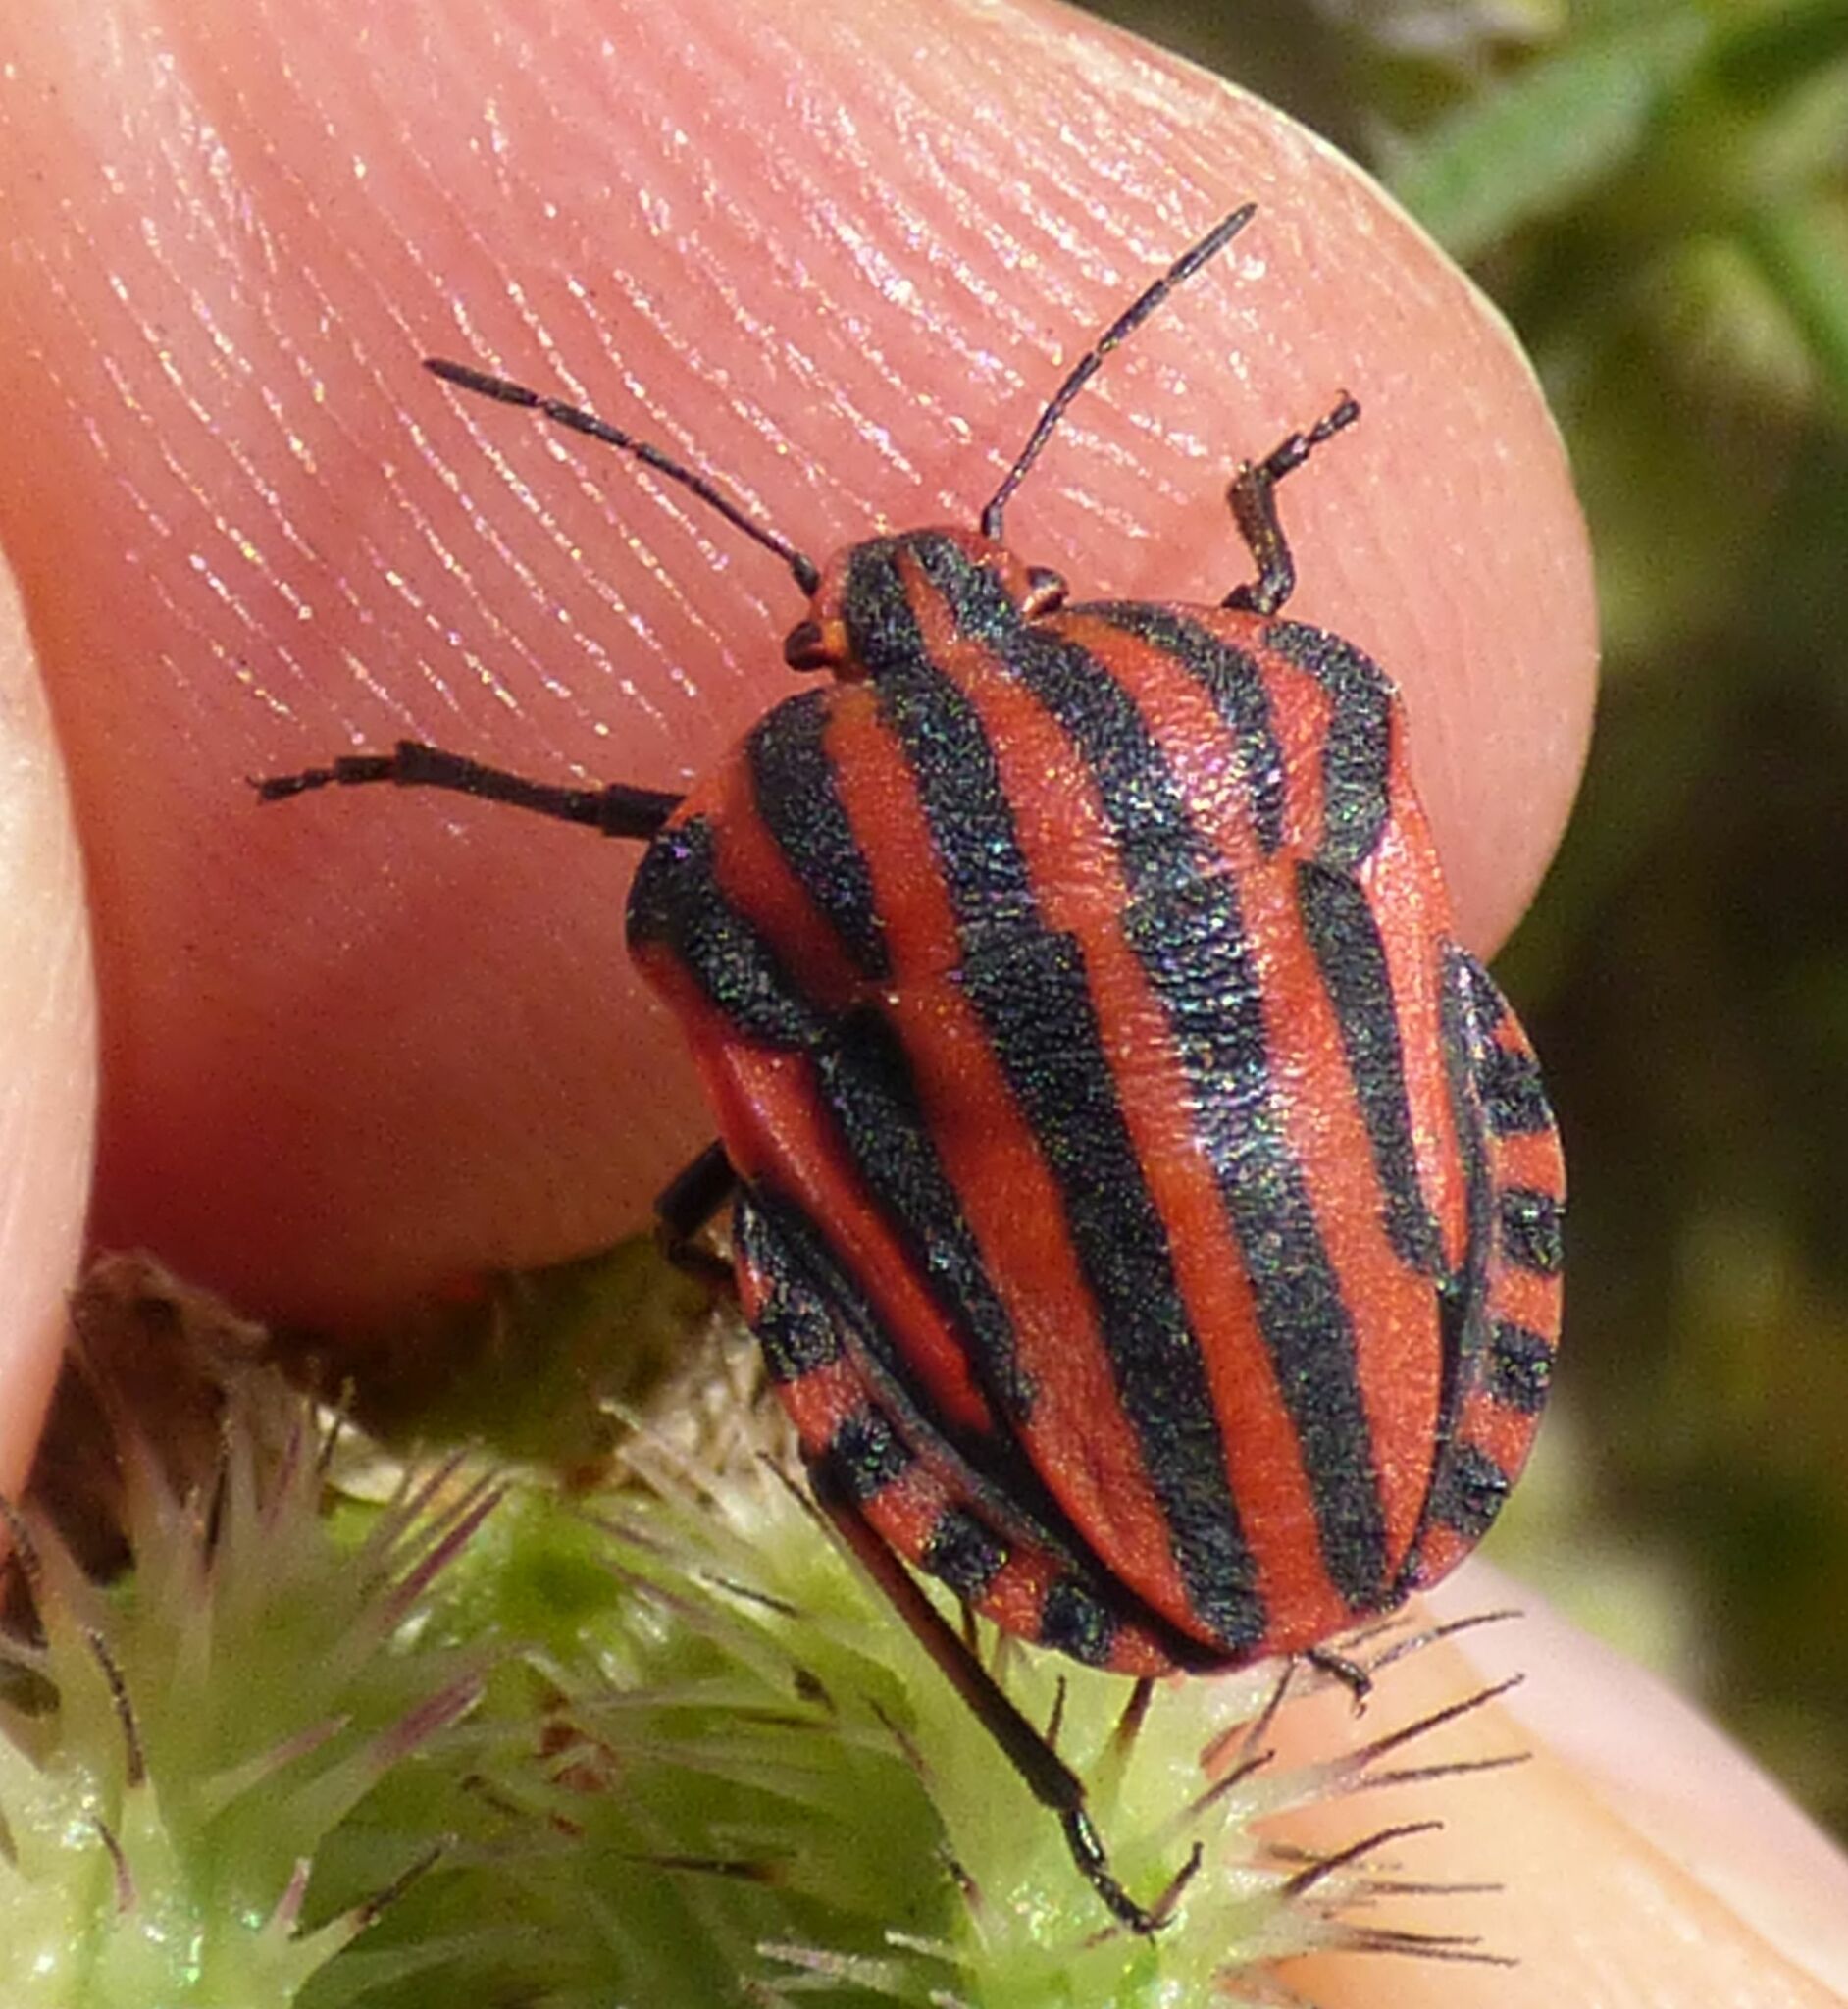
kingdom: Animalia
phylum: Arthropoda
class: Insecta
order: Hemiptera
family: Pentatomidae
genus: Graphosoma
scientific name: Graphosoma italicum
